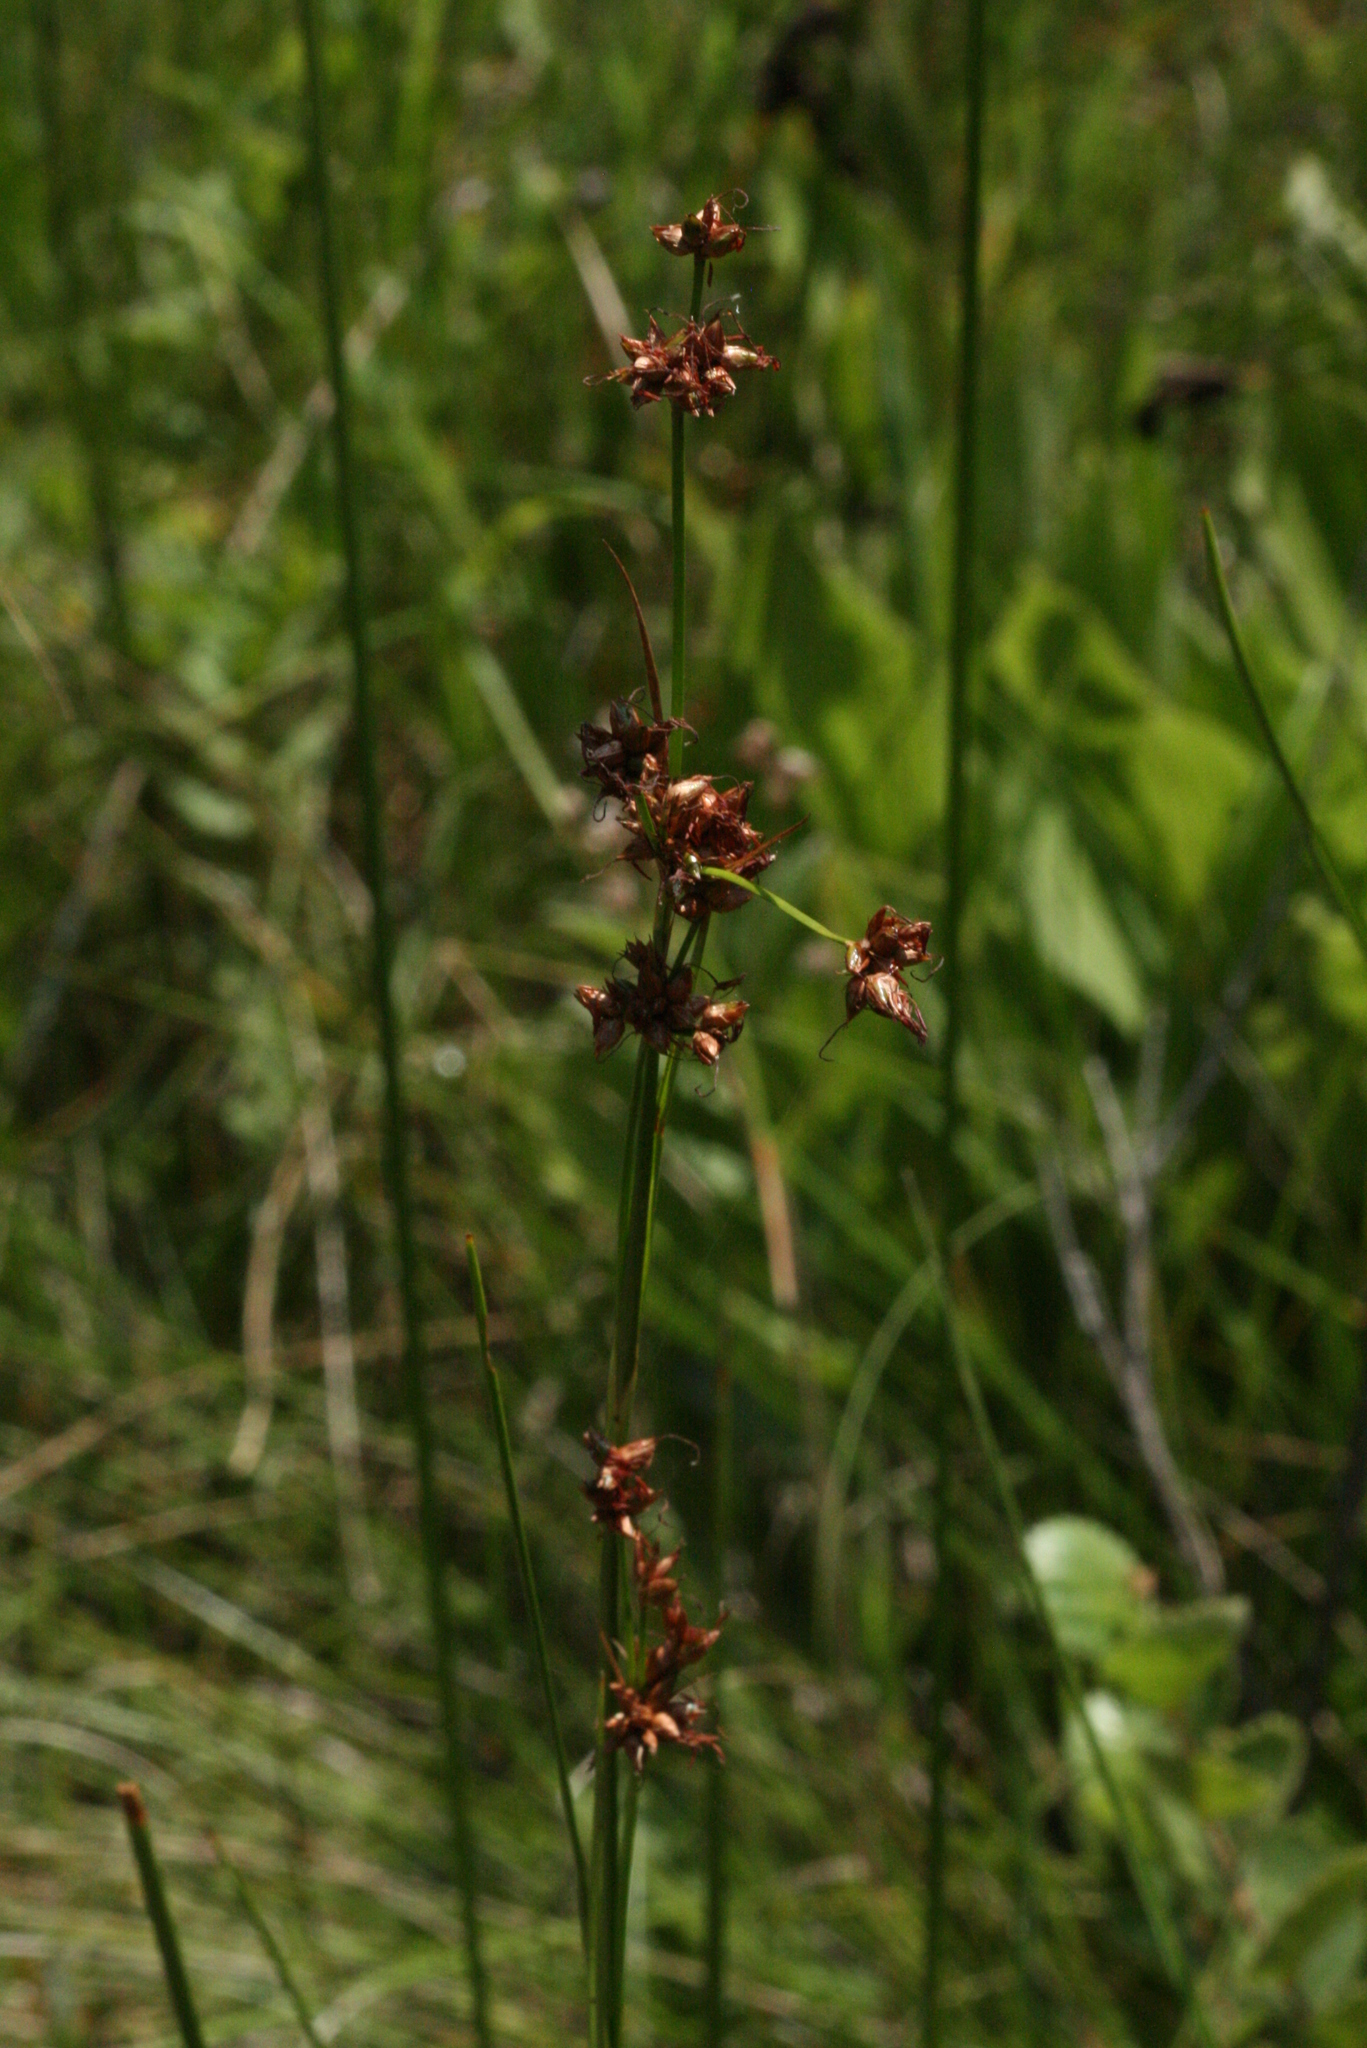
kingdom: Plantae
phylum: Tracheophyta
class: Liliopsida
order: Poales
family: Cyperaceae
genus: Cladium
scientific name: Cladium mariscoides
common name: Smooth sawgrass
